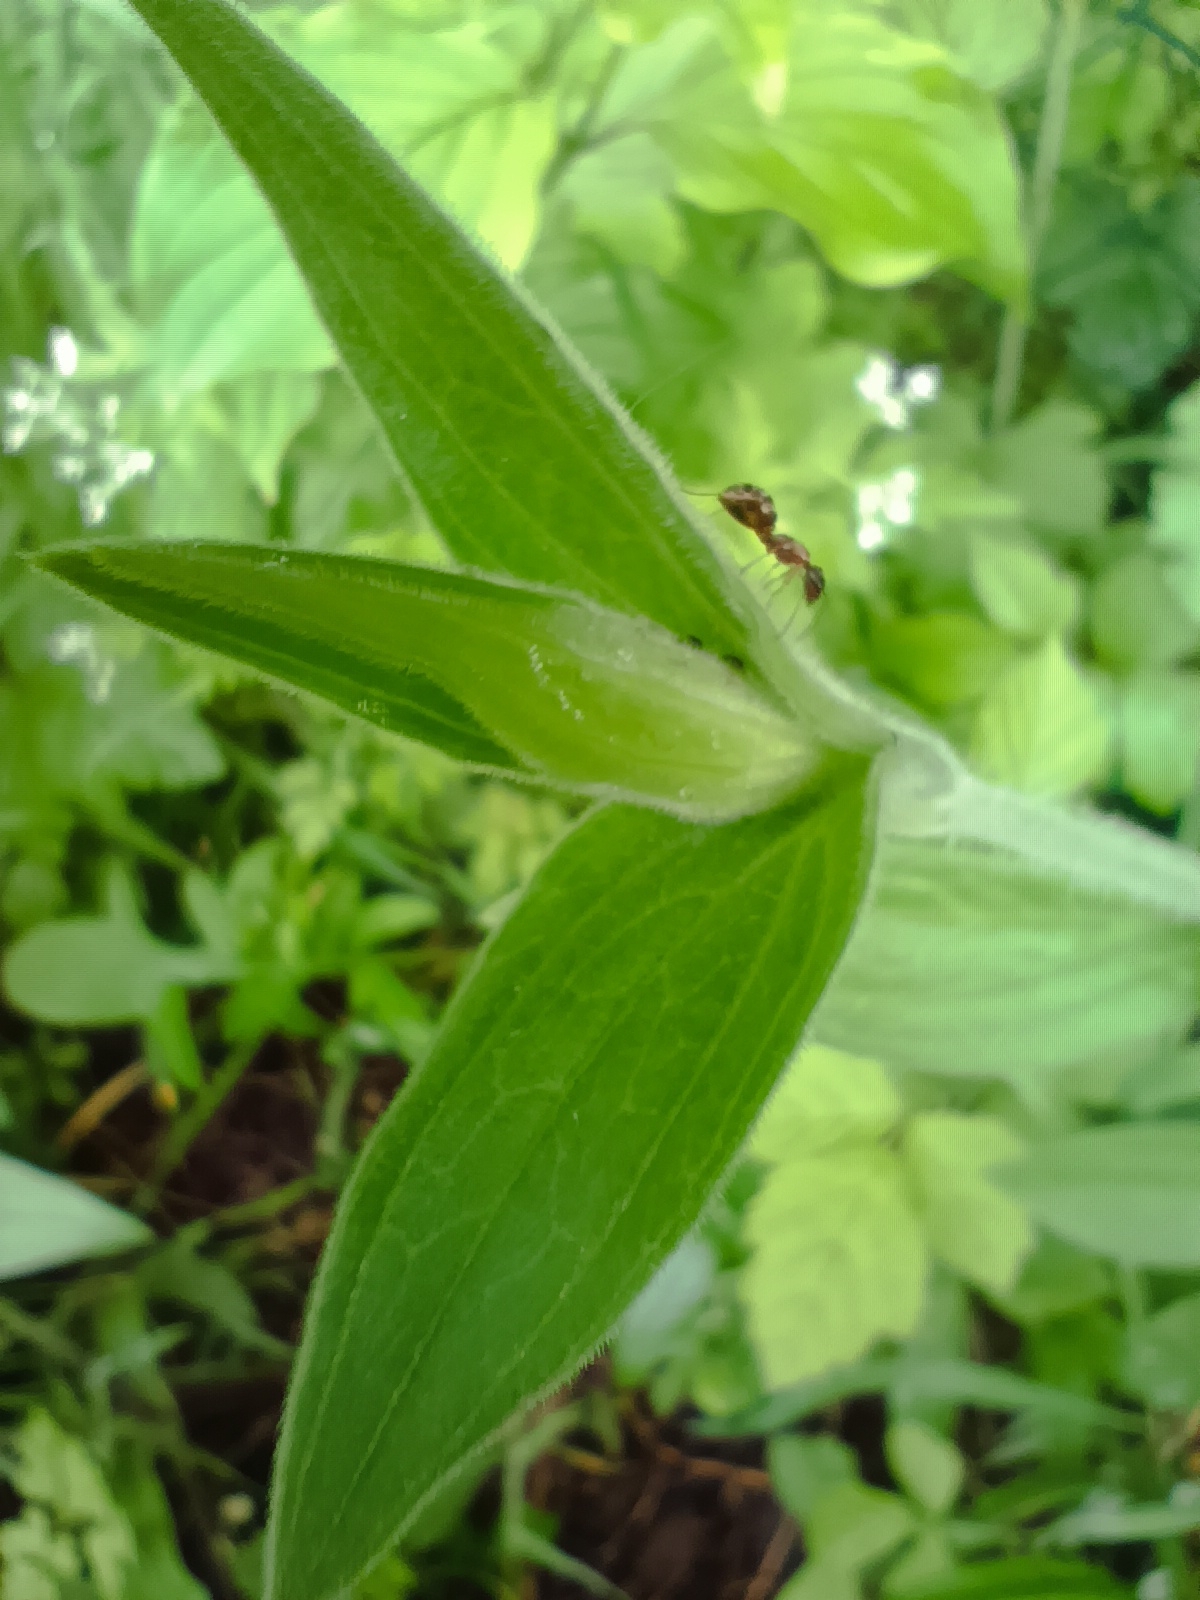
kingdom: Plantae
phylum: Tracheophyta
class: Magnoliopsida
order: Caryophyllales
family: Caryophyllaceae
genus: Silene
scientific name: Silene latifolia
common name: White campion
